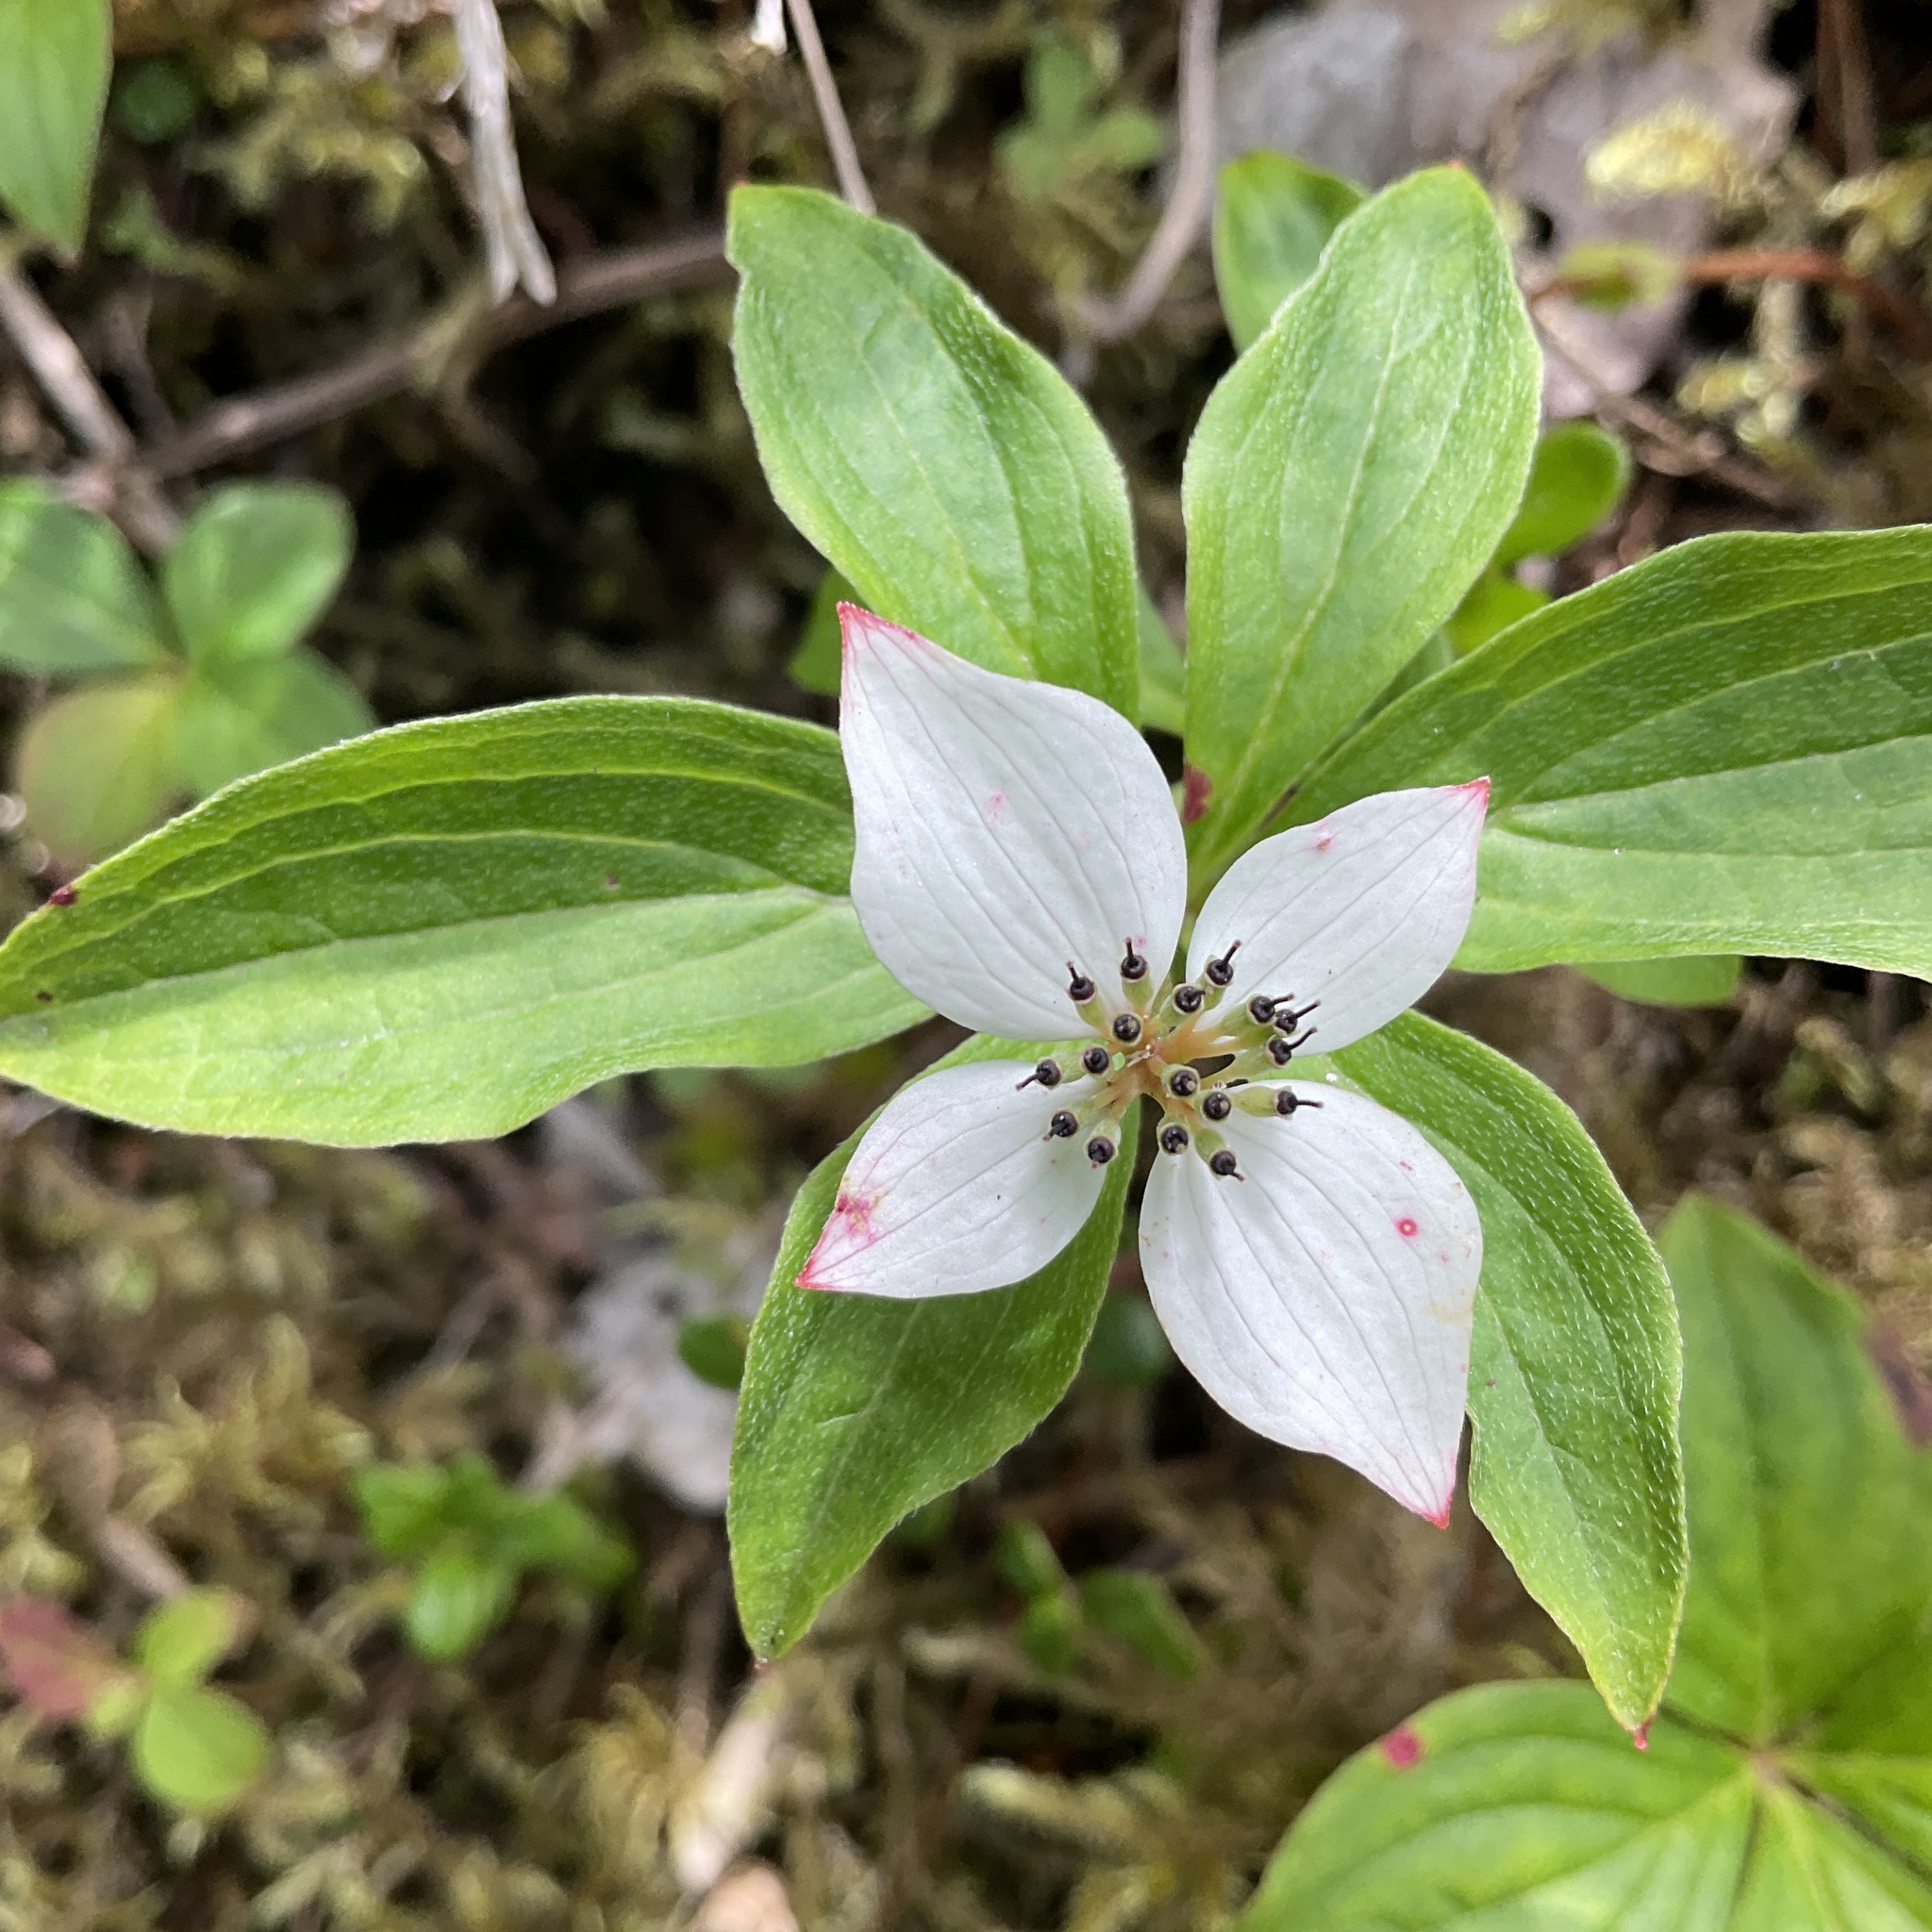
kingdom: Plantae
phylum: Tracheophyta
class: Magnoliopsida
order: Cornales
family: Cornaceae
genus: Cornus
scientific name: Cornus unalaschkensis
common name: Alaska bunchberry
